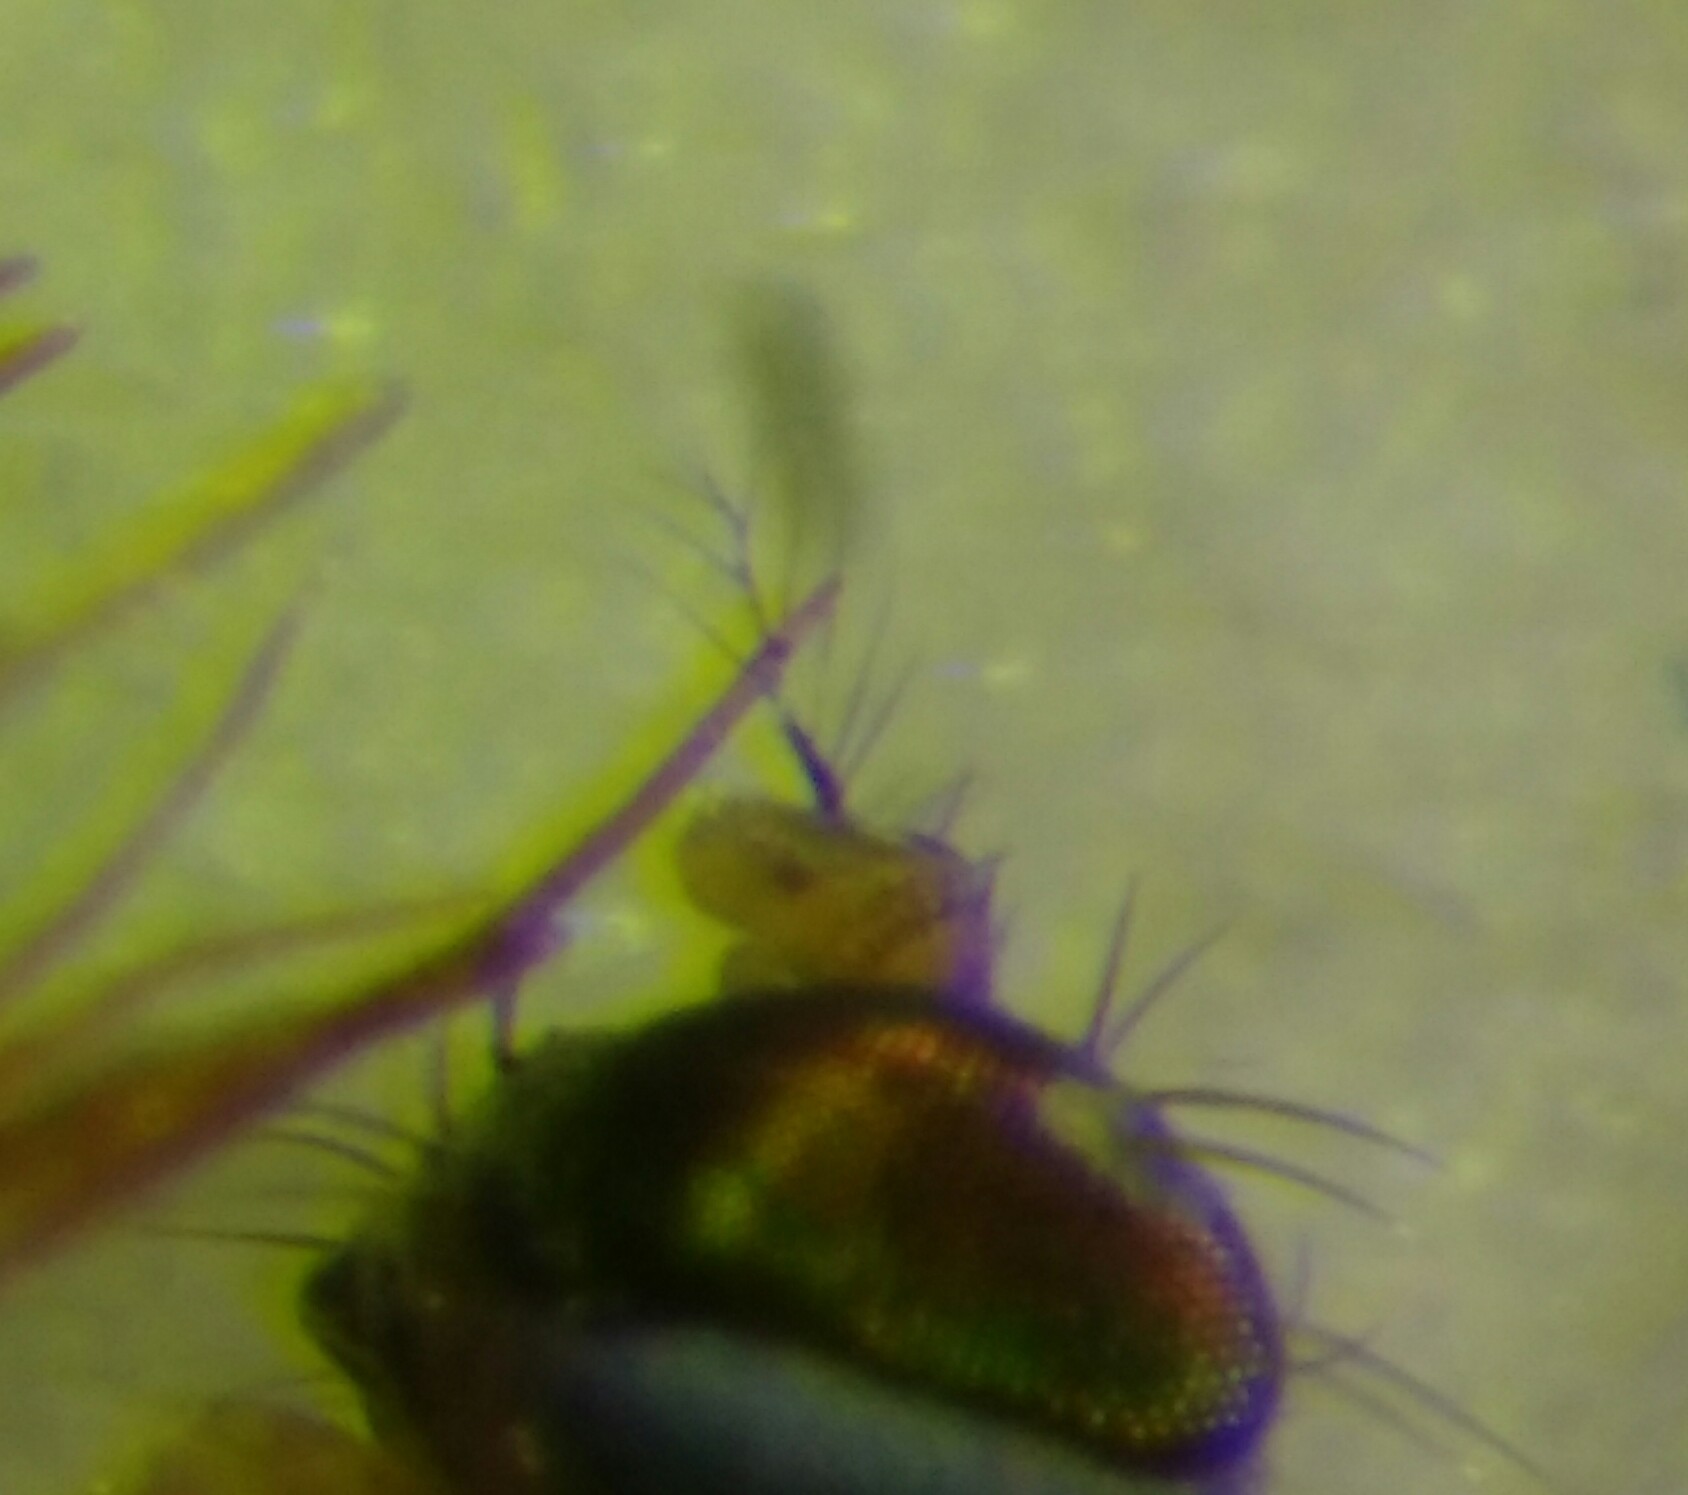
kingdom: Animalia
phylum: Arthropoda
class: Insecta
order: Diptera
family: Periscelididae
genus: Stenomicra
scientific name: Stenomicra soniae
